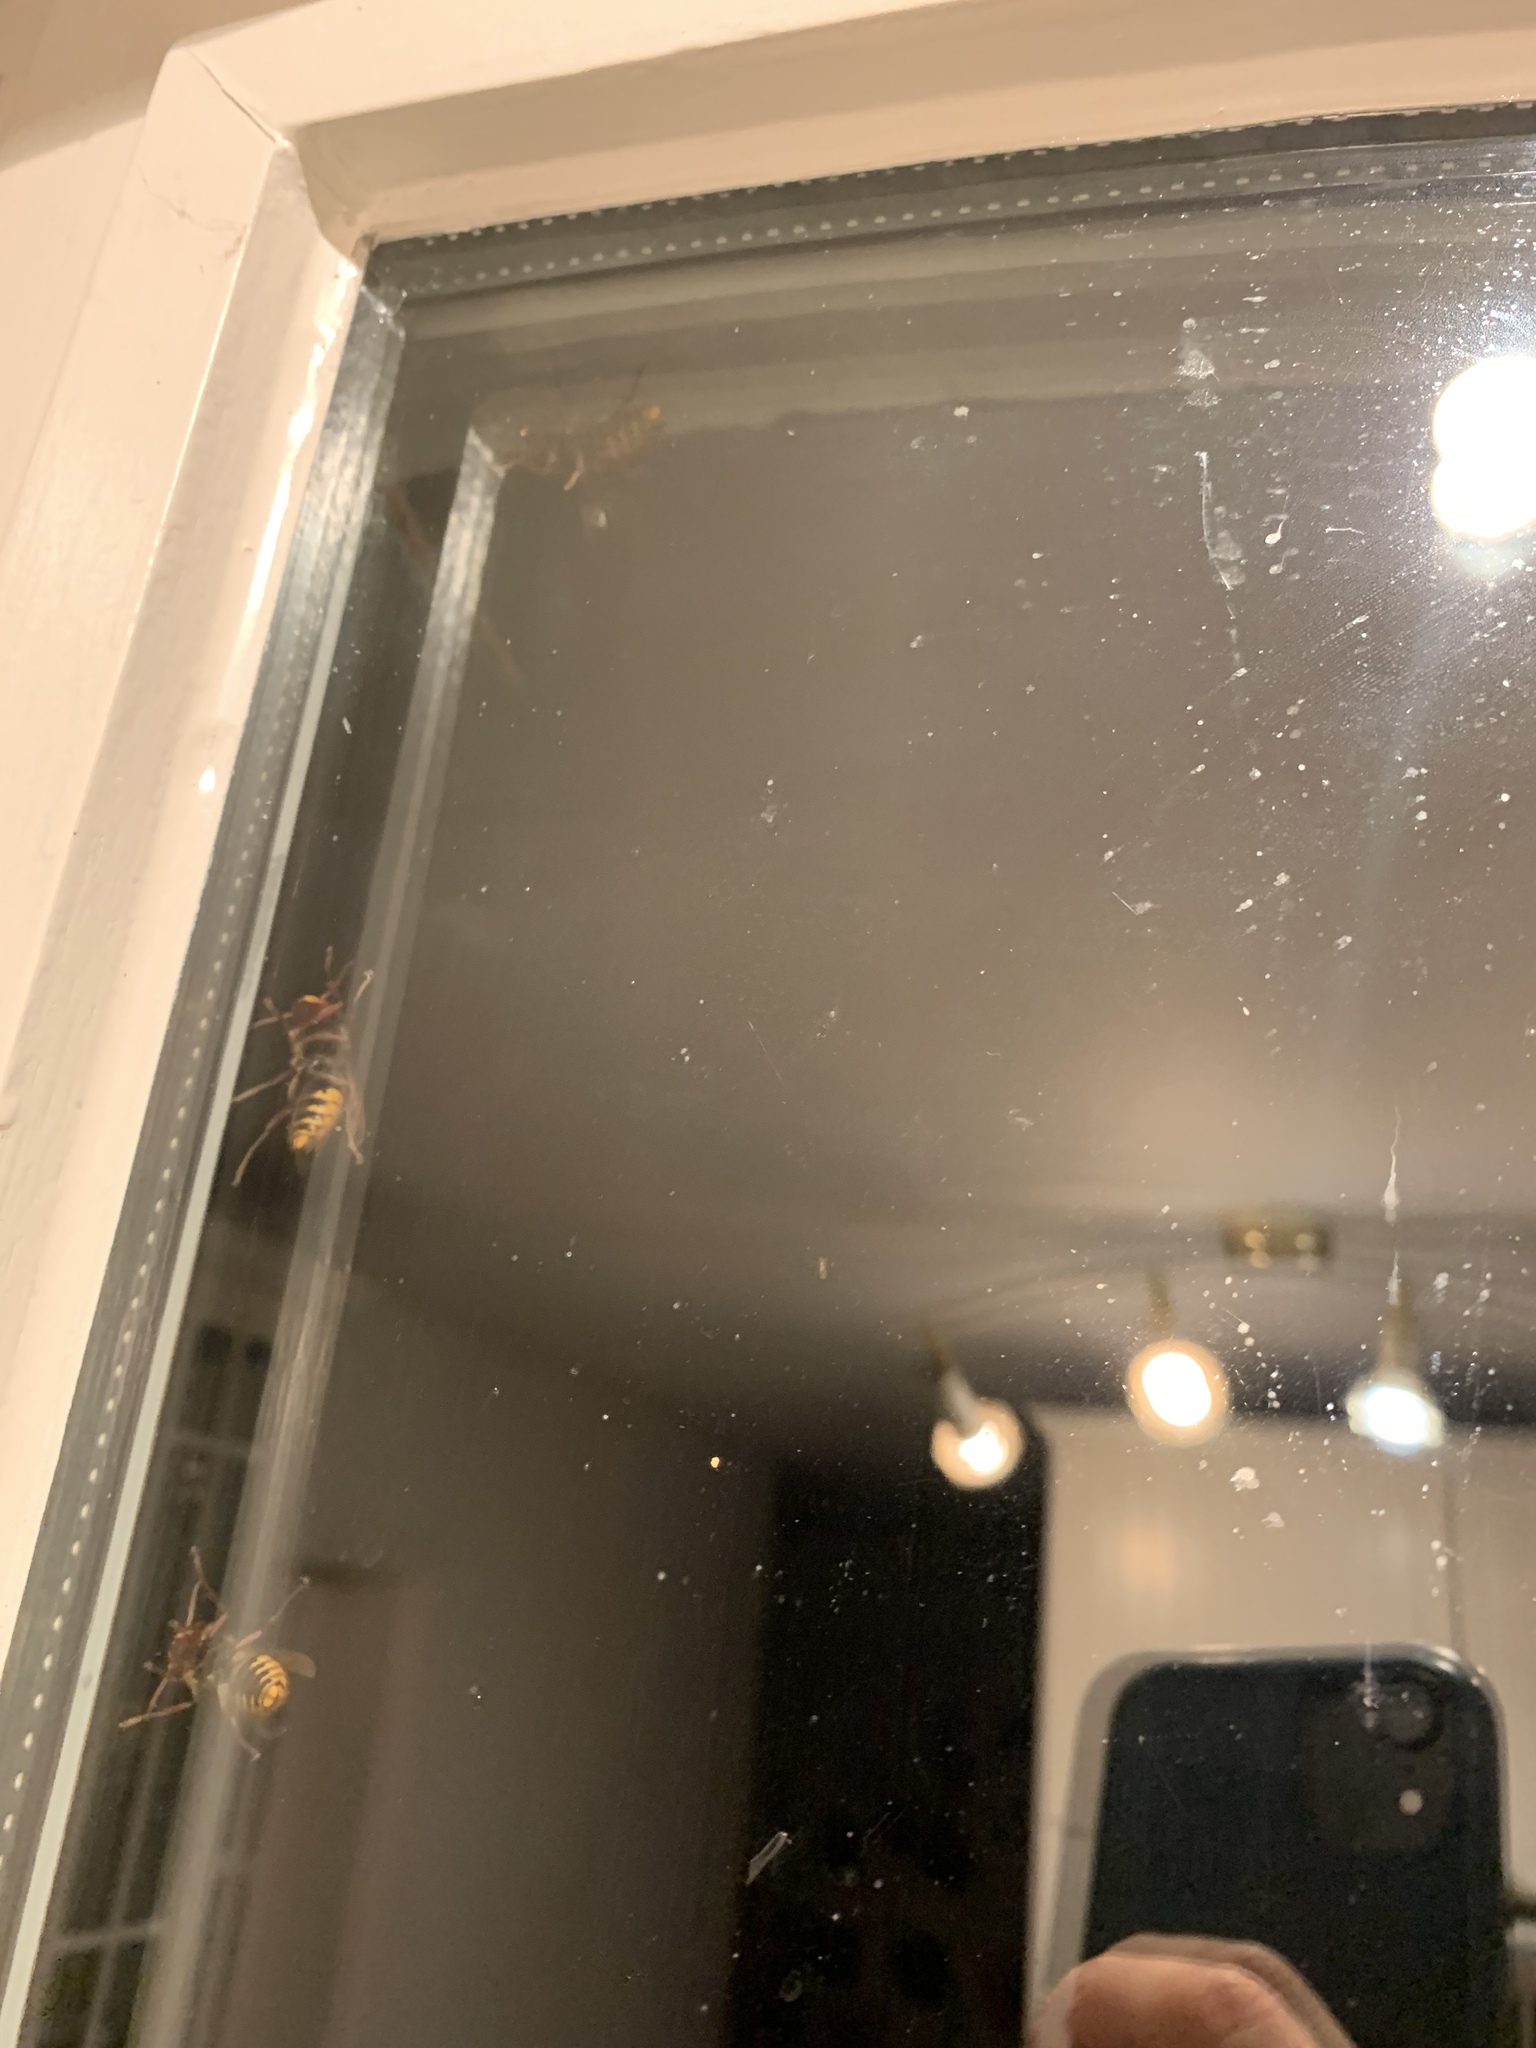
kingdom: Animalia
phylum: Arthropoda
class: Insecta
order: Hymenoptera
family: Vespidae
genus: Vespa
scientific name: Vespa crabro
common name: Hornet
